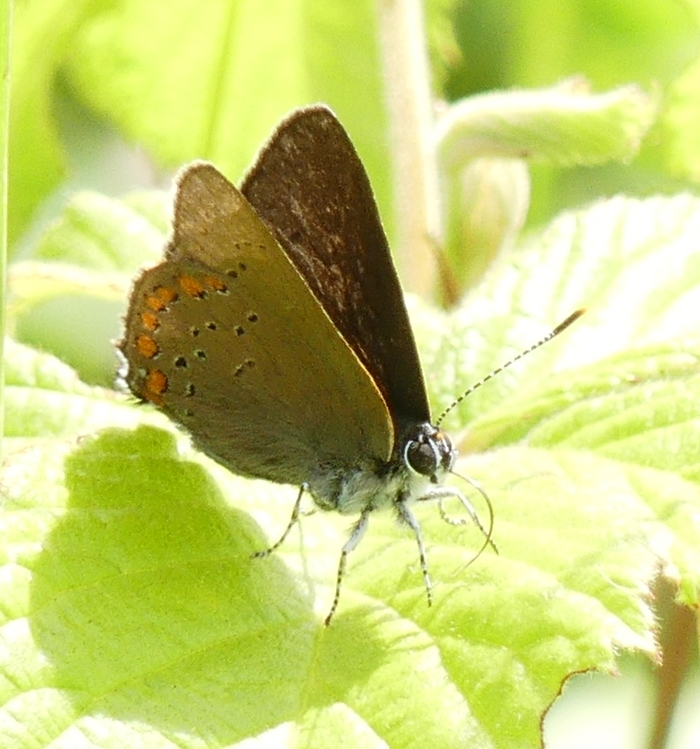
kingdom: Animalia
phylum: Arthropoda
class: Insecta
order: Lepidoptera
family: Lycaenidae
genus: Harkenclenus
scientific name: Harkenclenus titus
